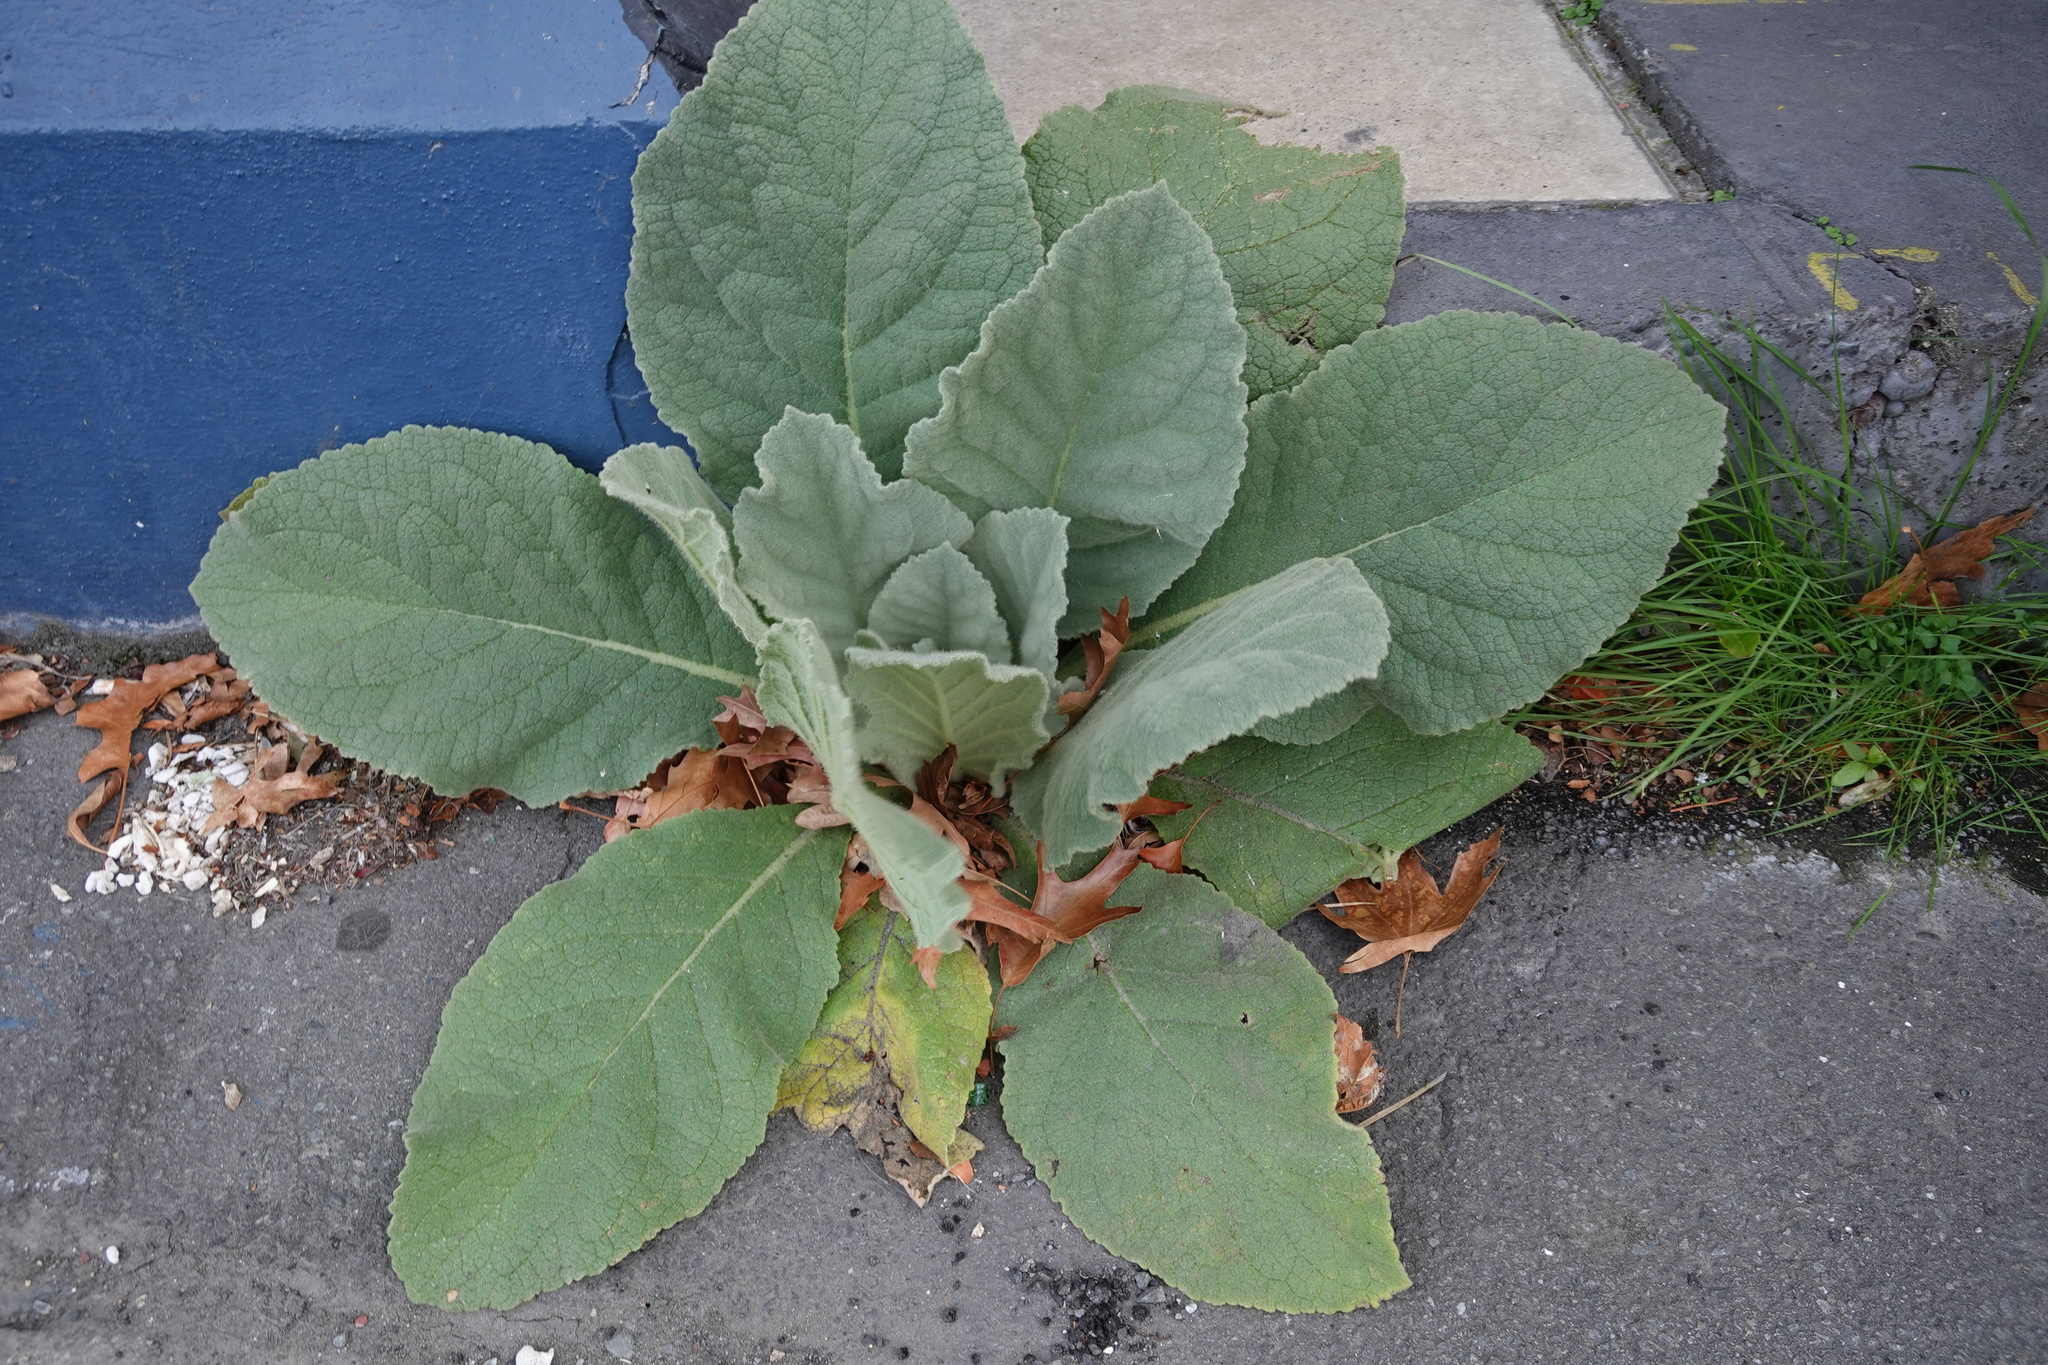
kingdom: Plantae
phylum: Tracheophyta
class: Magnoliopsida
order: Lamiales
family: Scrophulariaceae
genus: Verbascum
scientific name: Verbascum thapsus
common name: Common mullein
